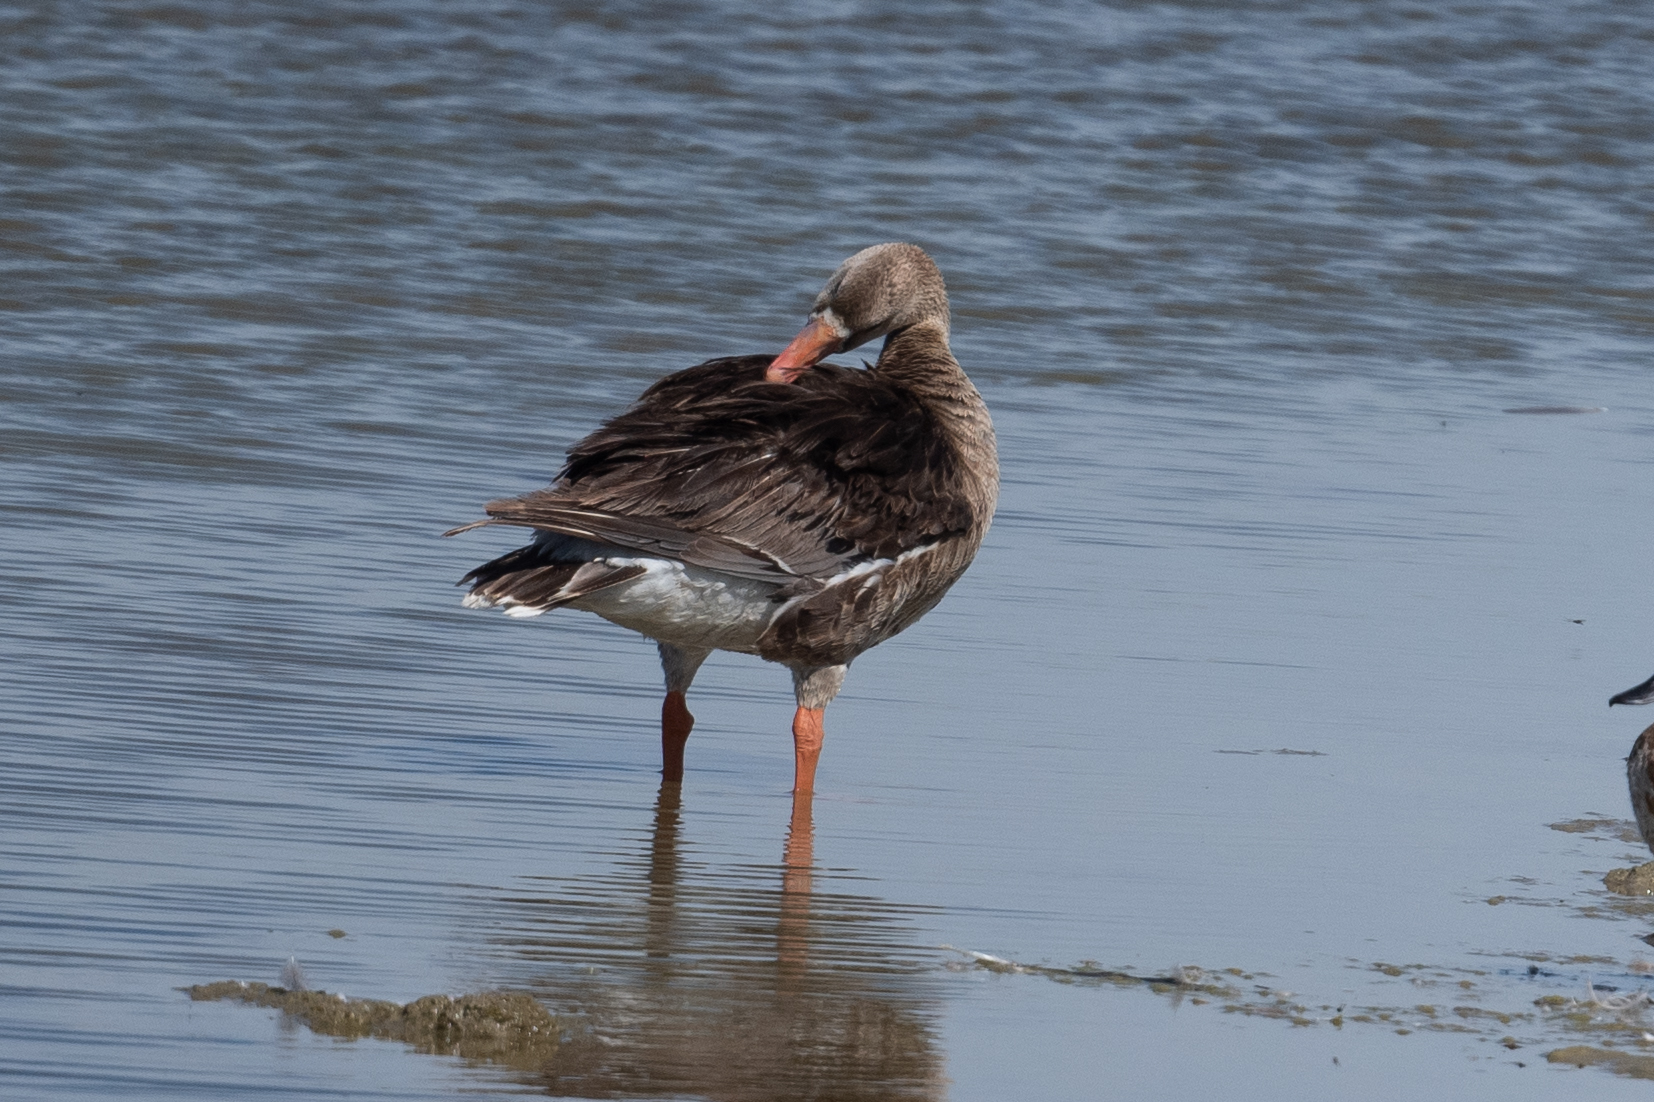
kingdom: Animalia
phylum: Chordata
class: Aves
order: Anseriformes
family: Anatidae
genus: Anser
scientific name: Anser albifrons
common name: Greater white-fronted goose
